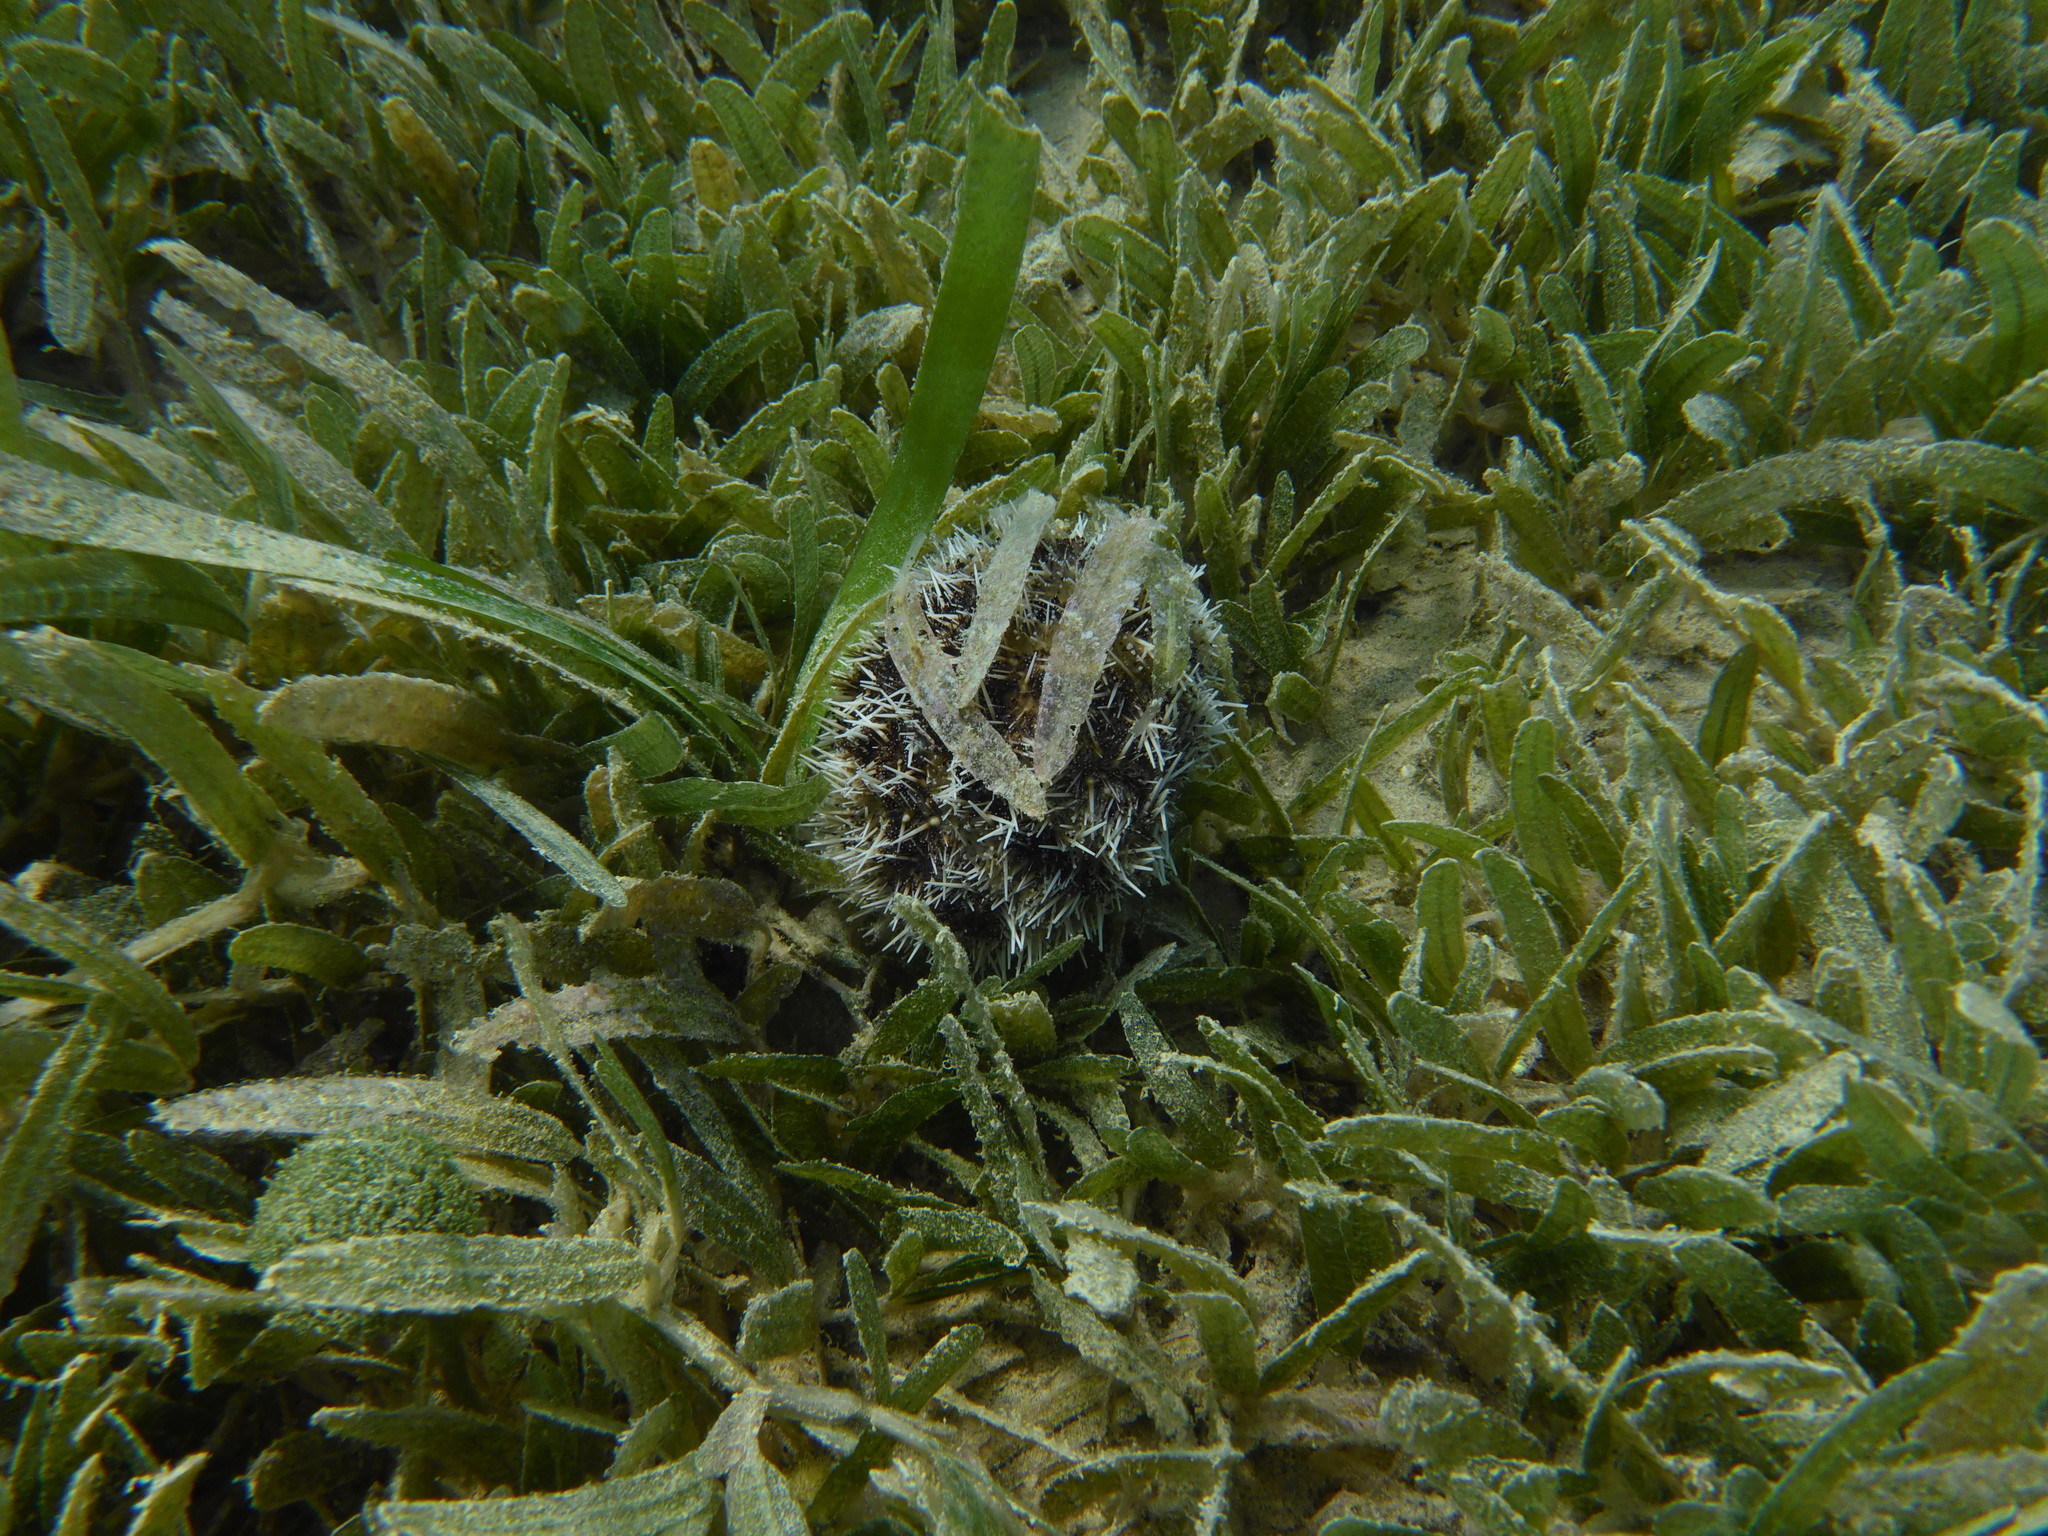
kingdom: Animalia
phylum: Echinodermata
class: Echinoidea
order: Camarodonta
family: Toxopneustidae
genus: Tripneustes
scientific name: Tripneustes ventricosus
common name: West indian sea egg
